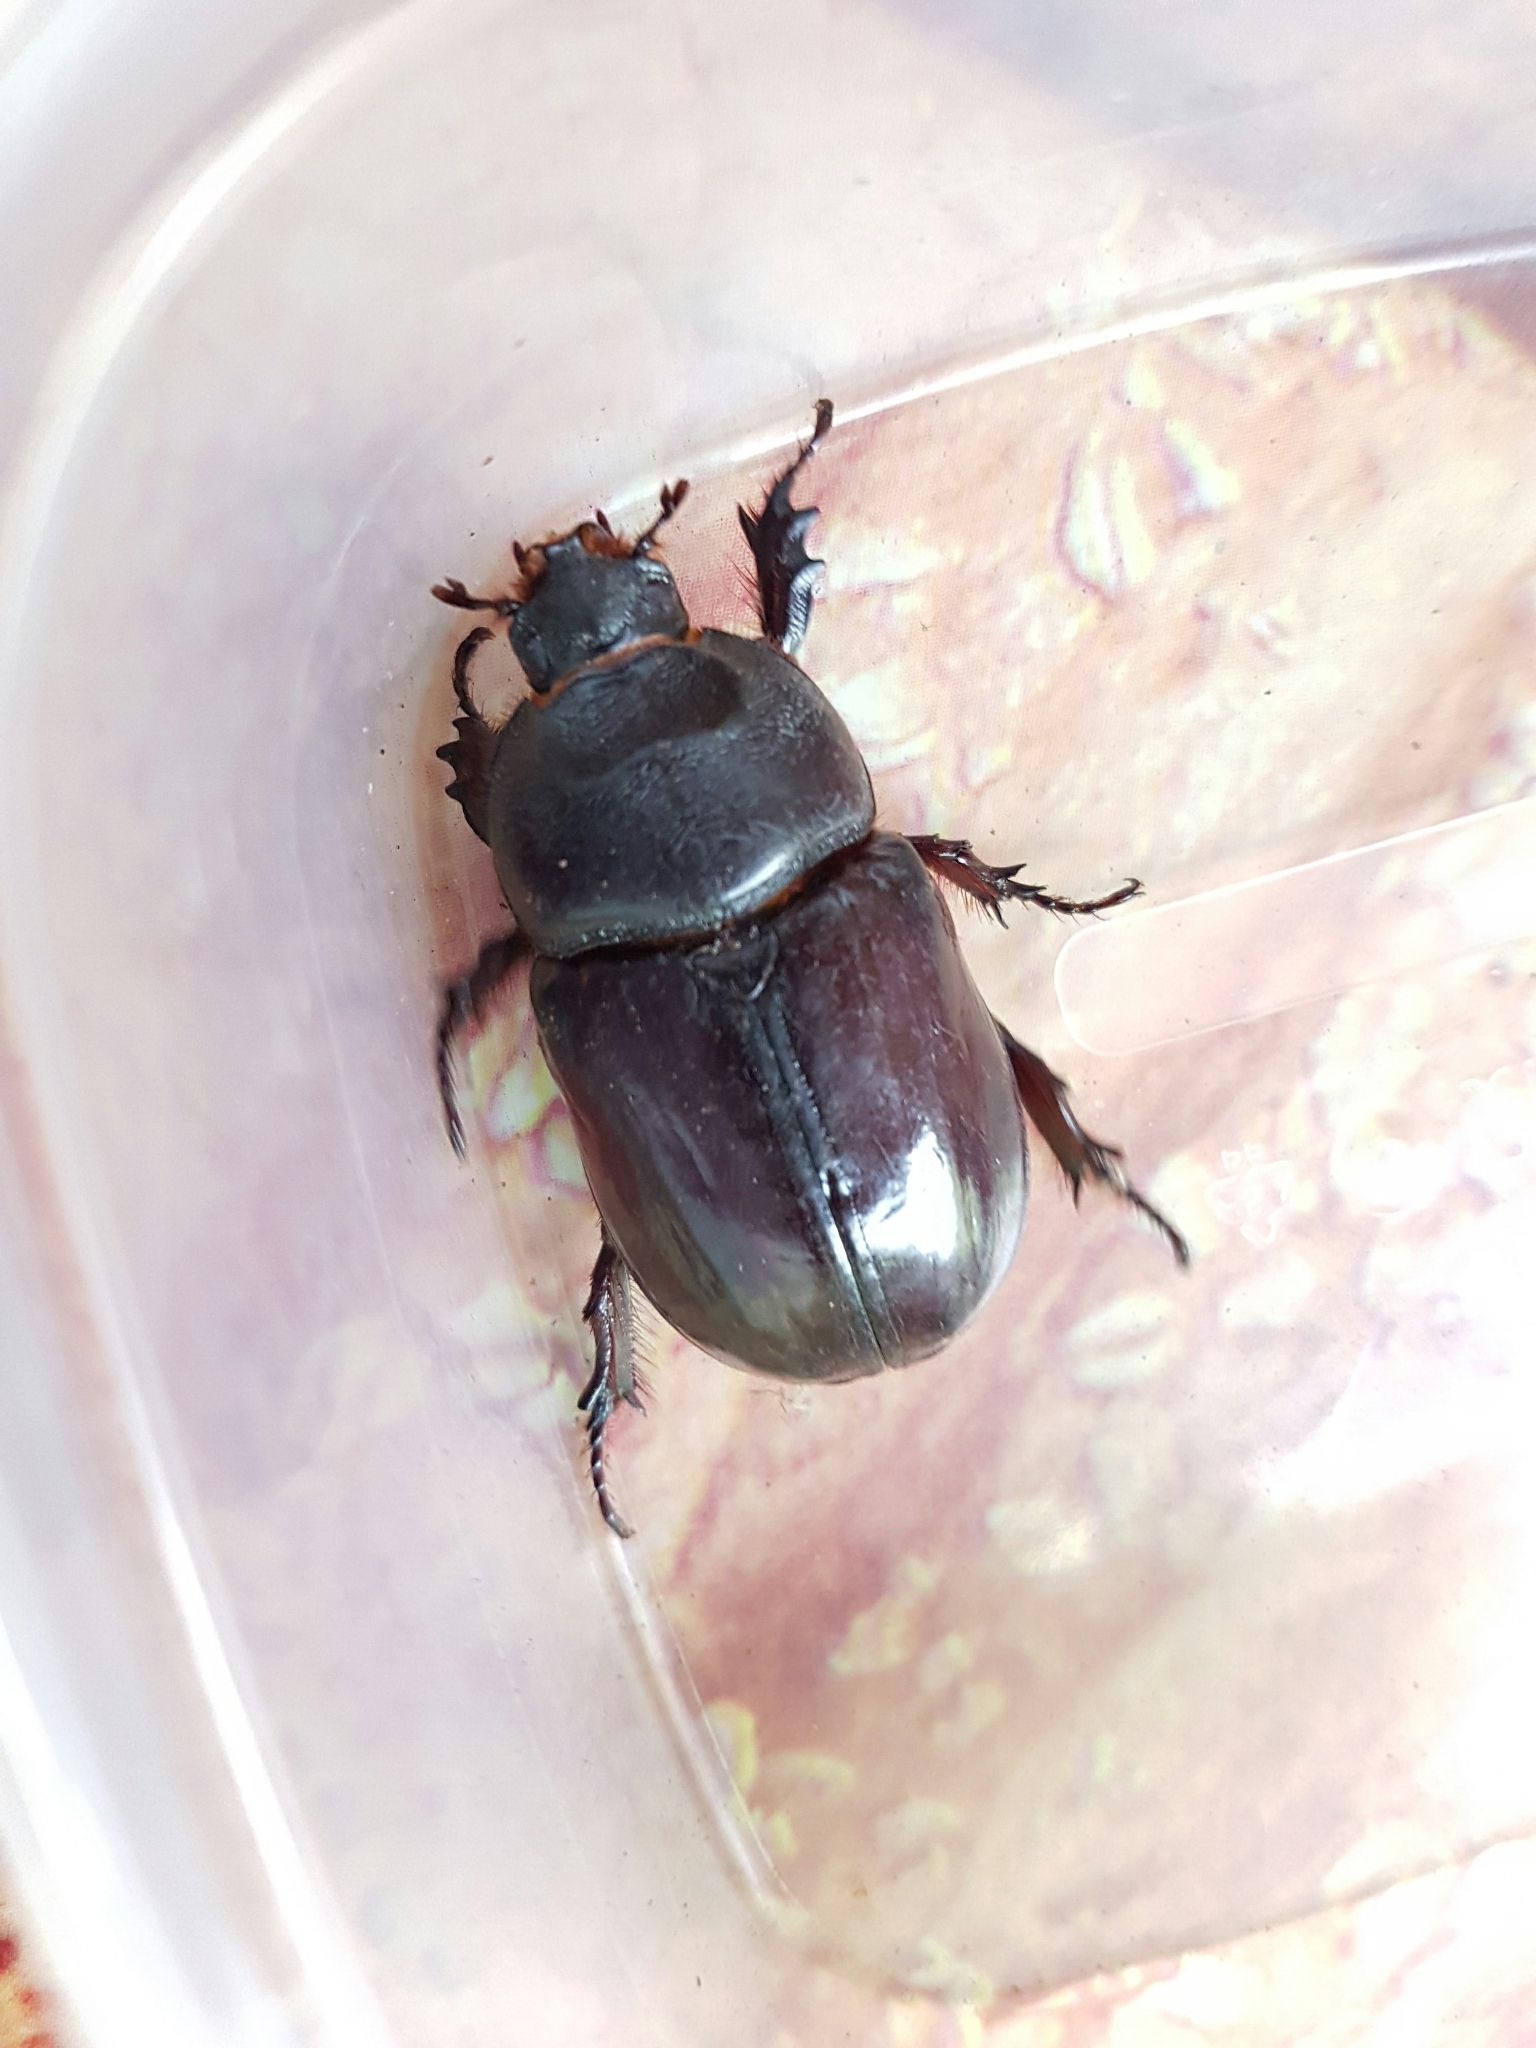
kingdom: Animalia
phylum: Arthropoda
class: Insecta
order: Coleoptera
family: Scarabaeidae
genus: Oryctes
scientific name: Oryctes nasicornis
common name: European rhinoceros beetle
